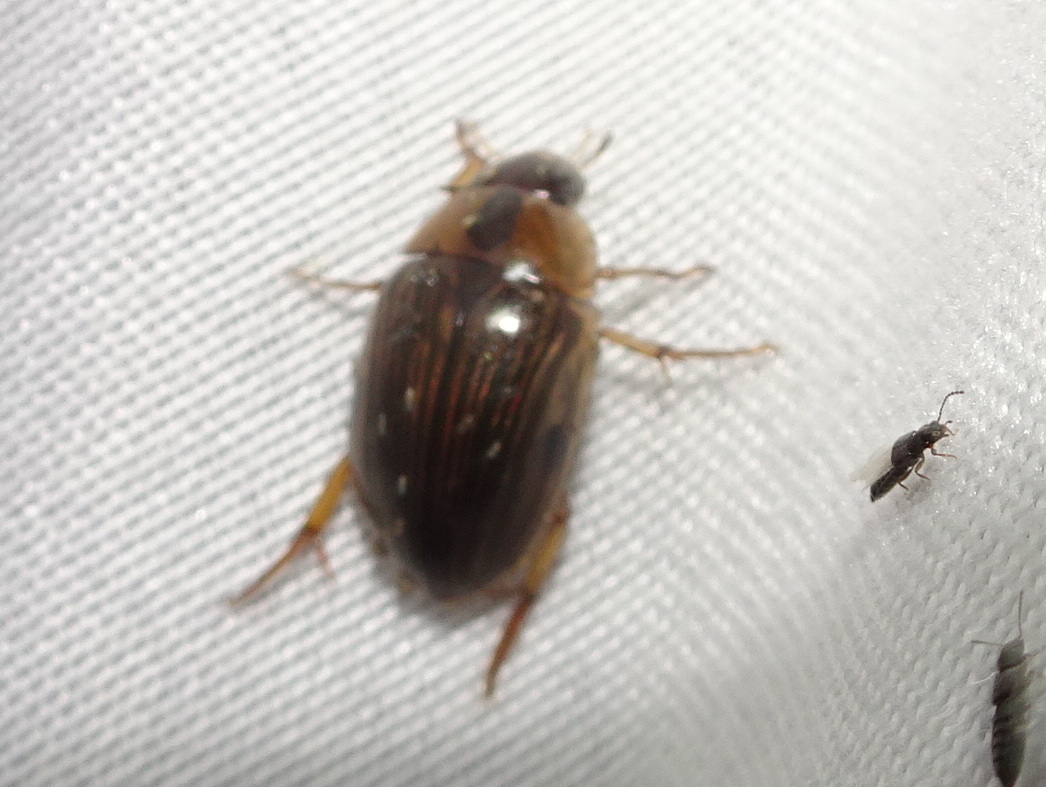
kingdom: Animalia
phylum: Arthropoda
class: Insecta
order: Coleoptera
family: Hydrophilidae
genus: Tropisternus
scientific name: Tropisternus collaris
